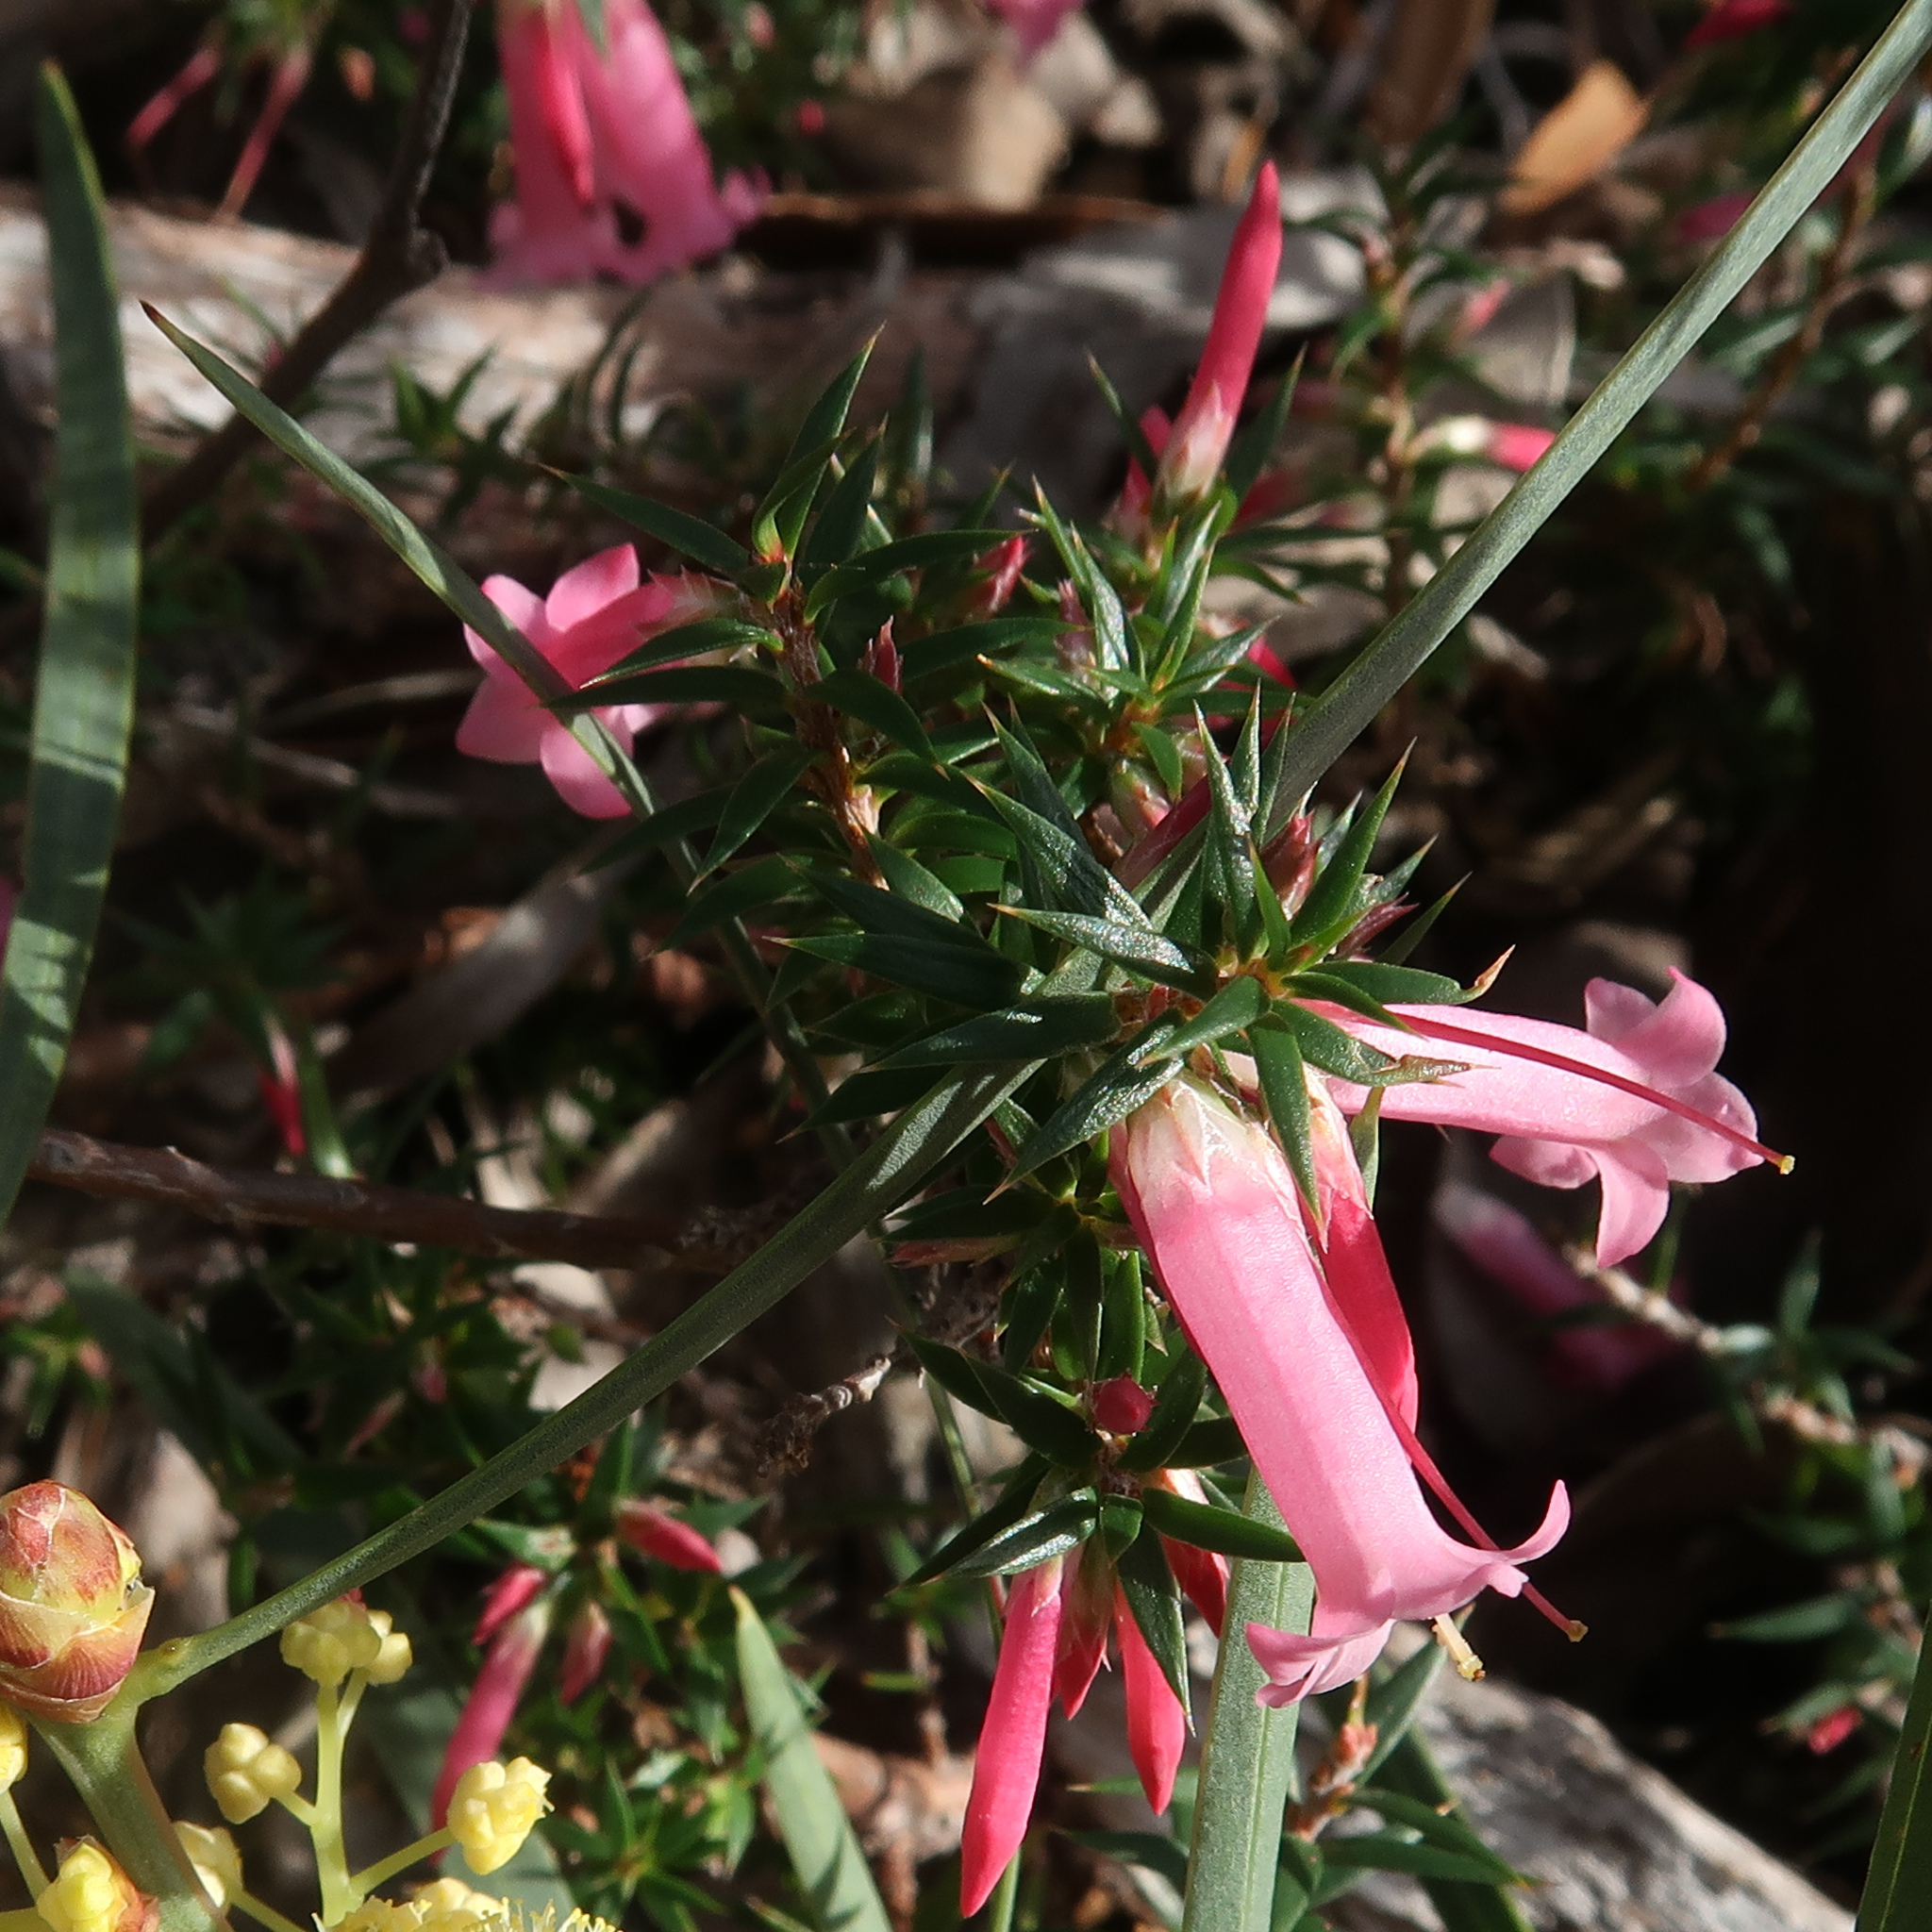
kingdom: Plantae
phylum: Tracheophyta
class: Magnoliopsida
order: Ericales
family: Ericaceae
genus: Epacris
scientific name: Epacris impressa
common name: Common-heath
